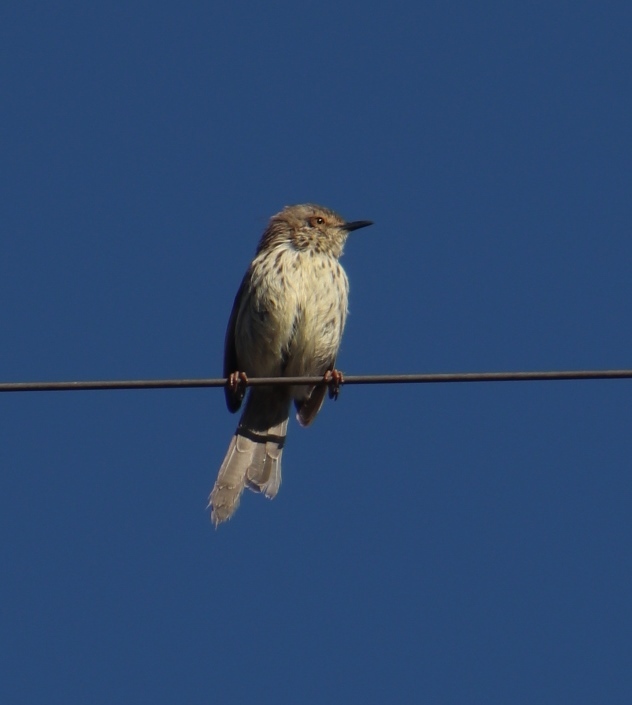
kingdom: Animalia
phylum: Chordata
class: Aves
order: Passeriformes
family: Cisticolidae
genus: Prinia
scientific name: Prinia maculosa
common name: Karoo prinia
